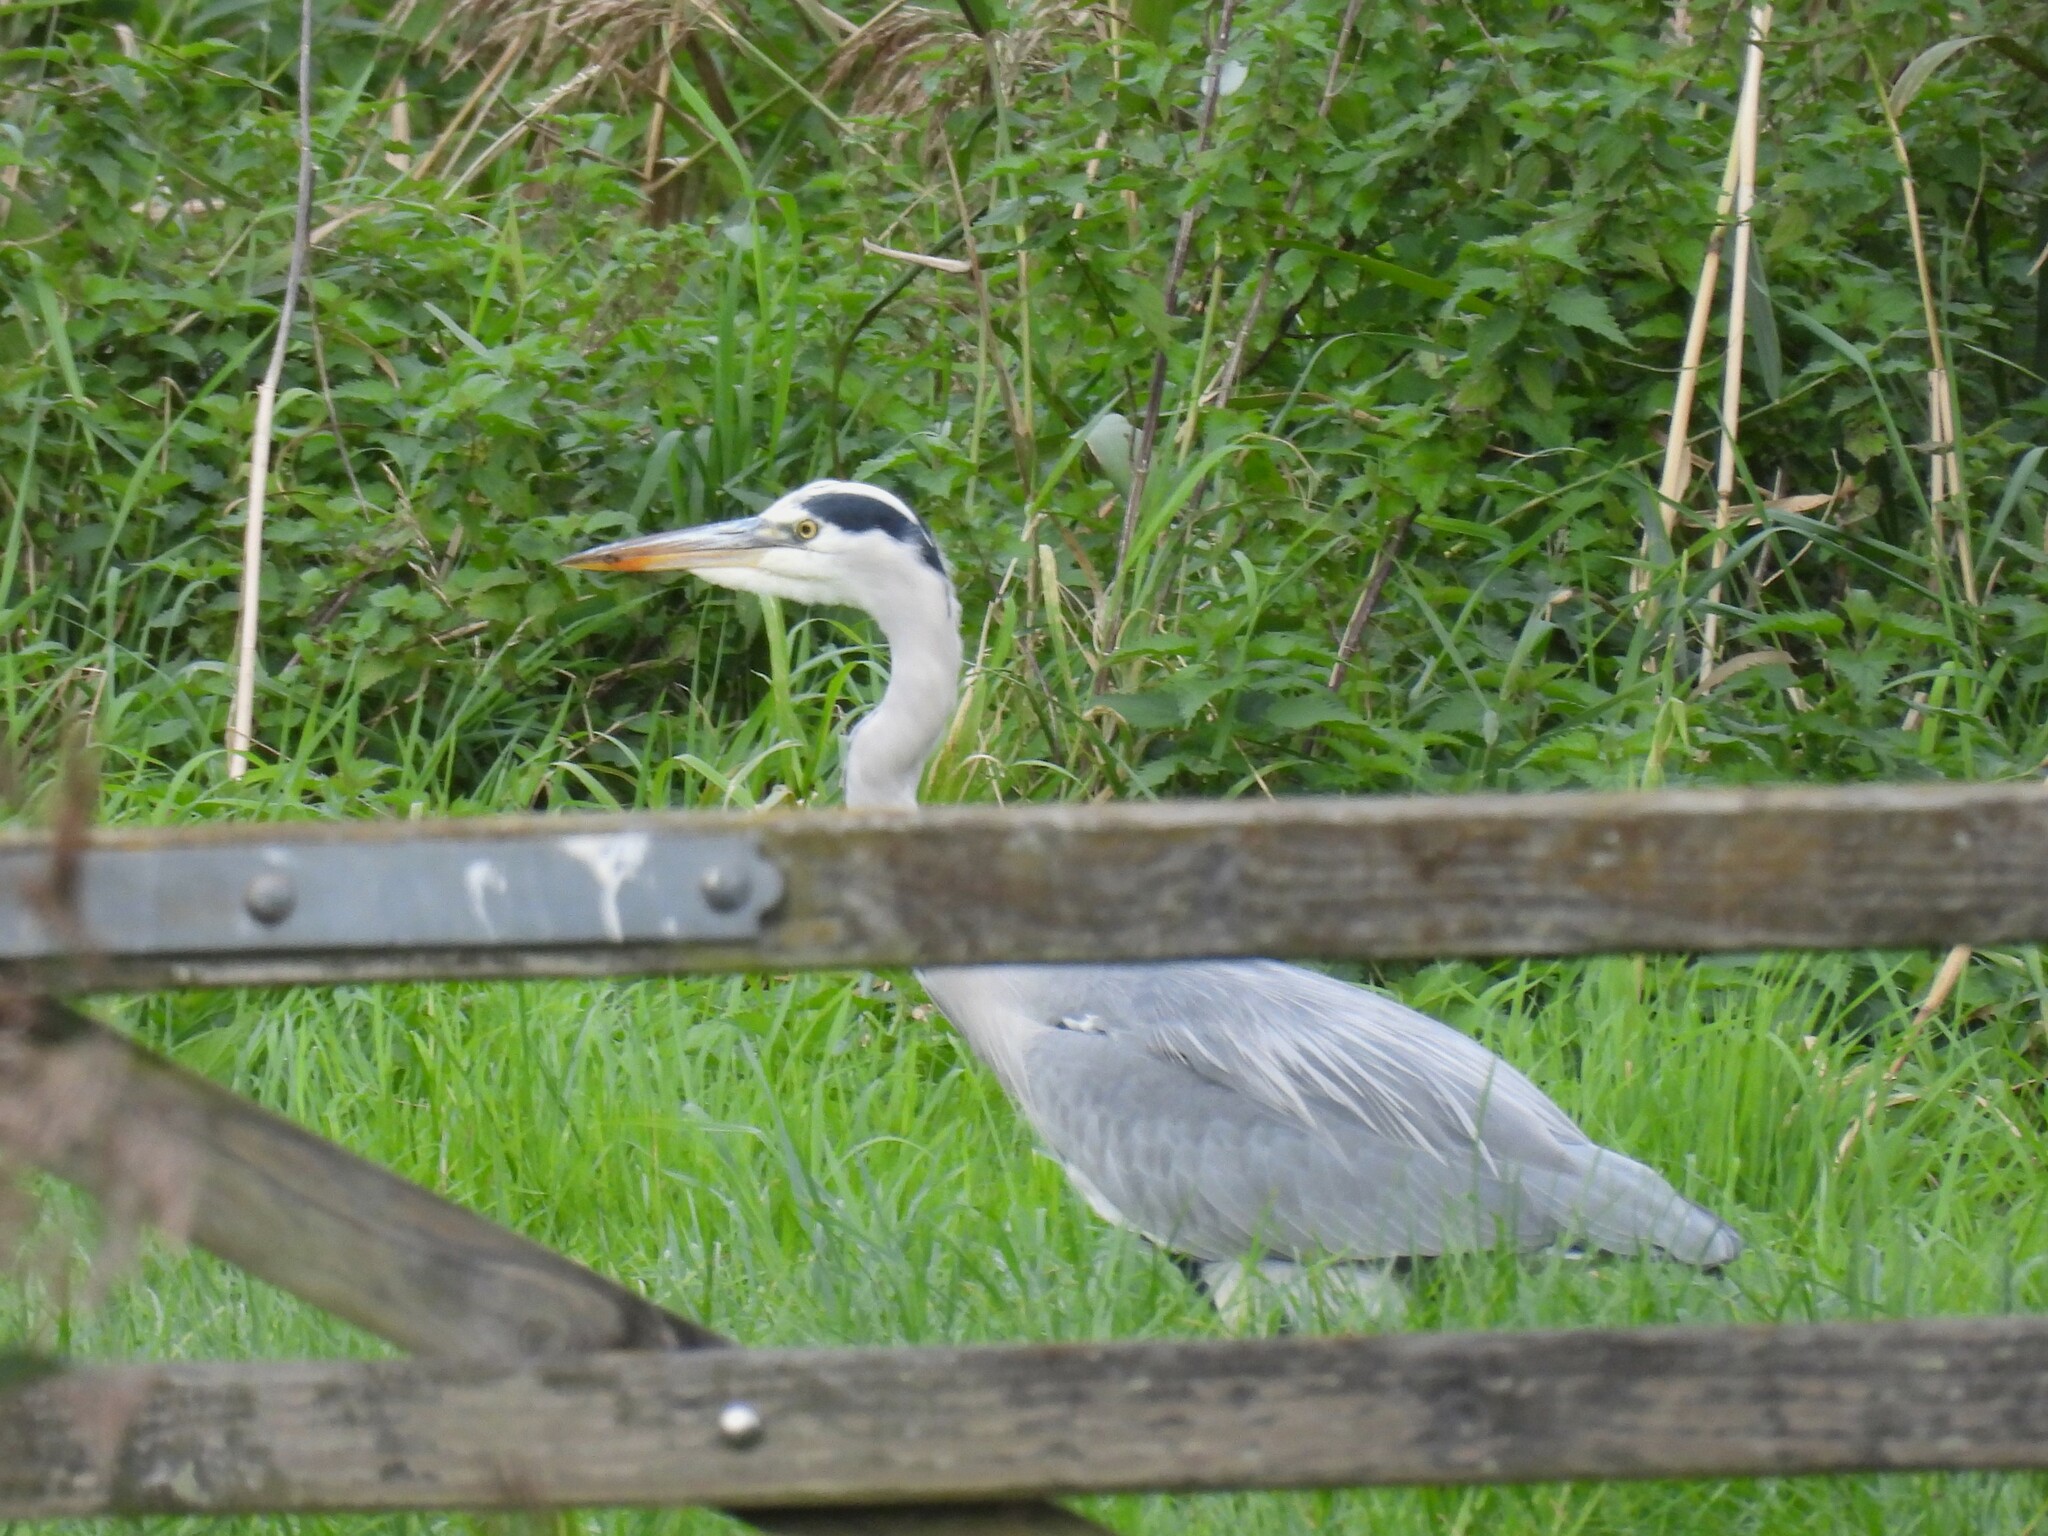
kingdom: Animalia
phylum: Chordata
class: Aves
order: Pelecaniformes
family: Ardeidae
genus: Ardea
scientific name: Ardea cinerea
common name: Grey heron
